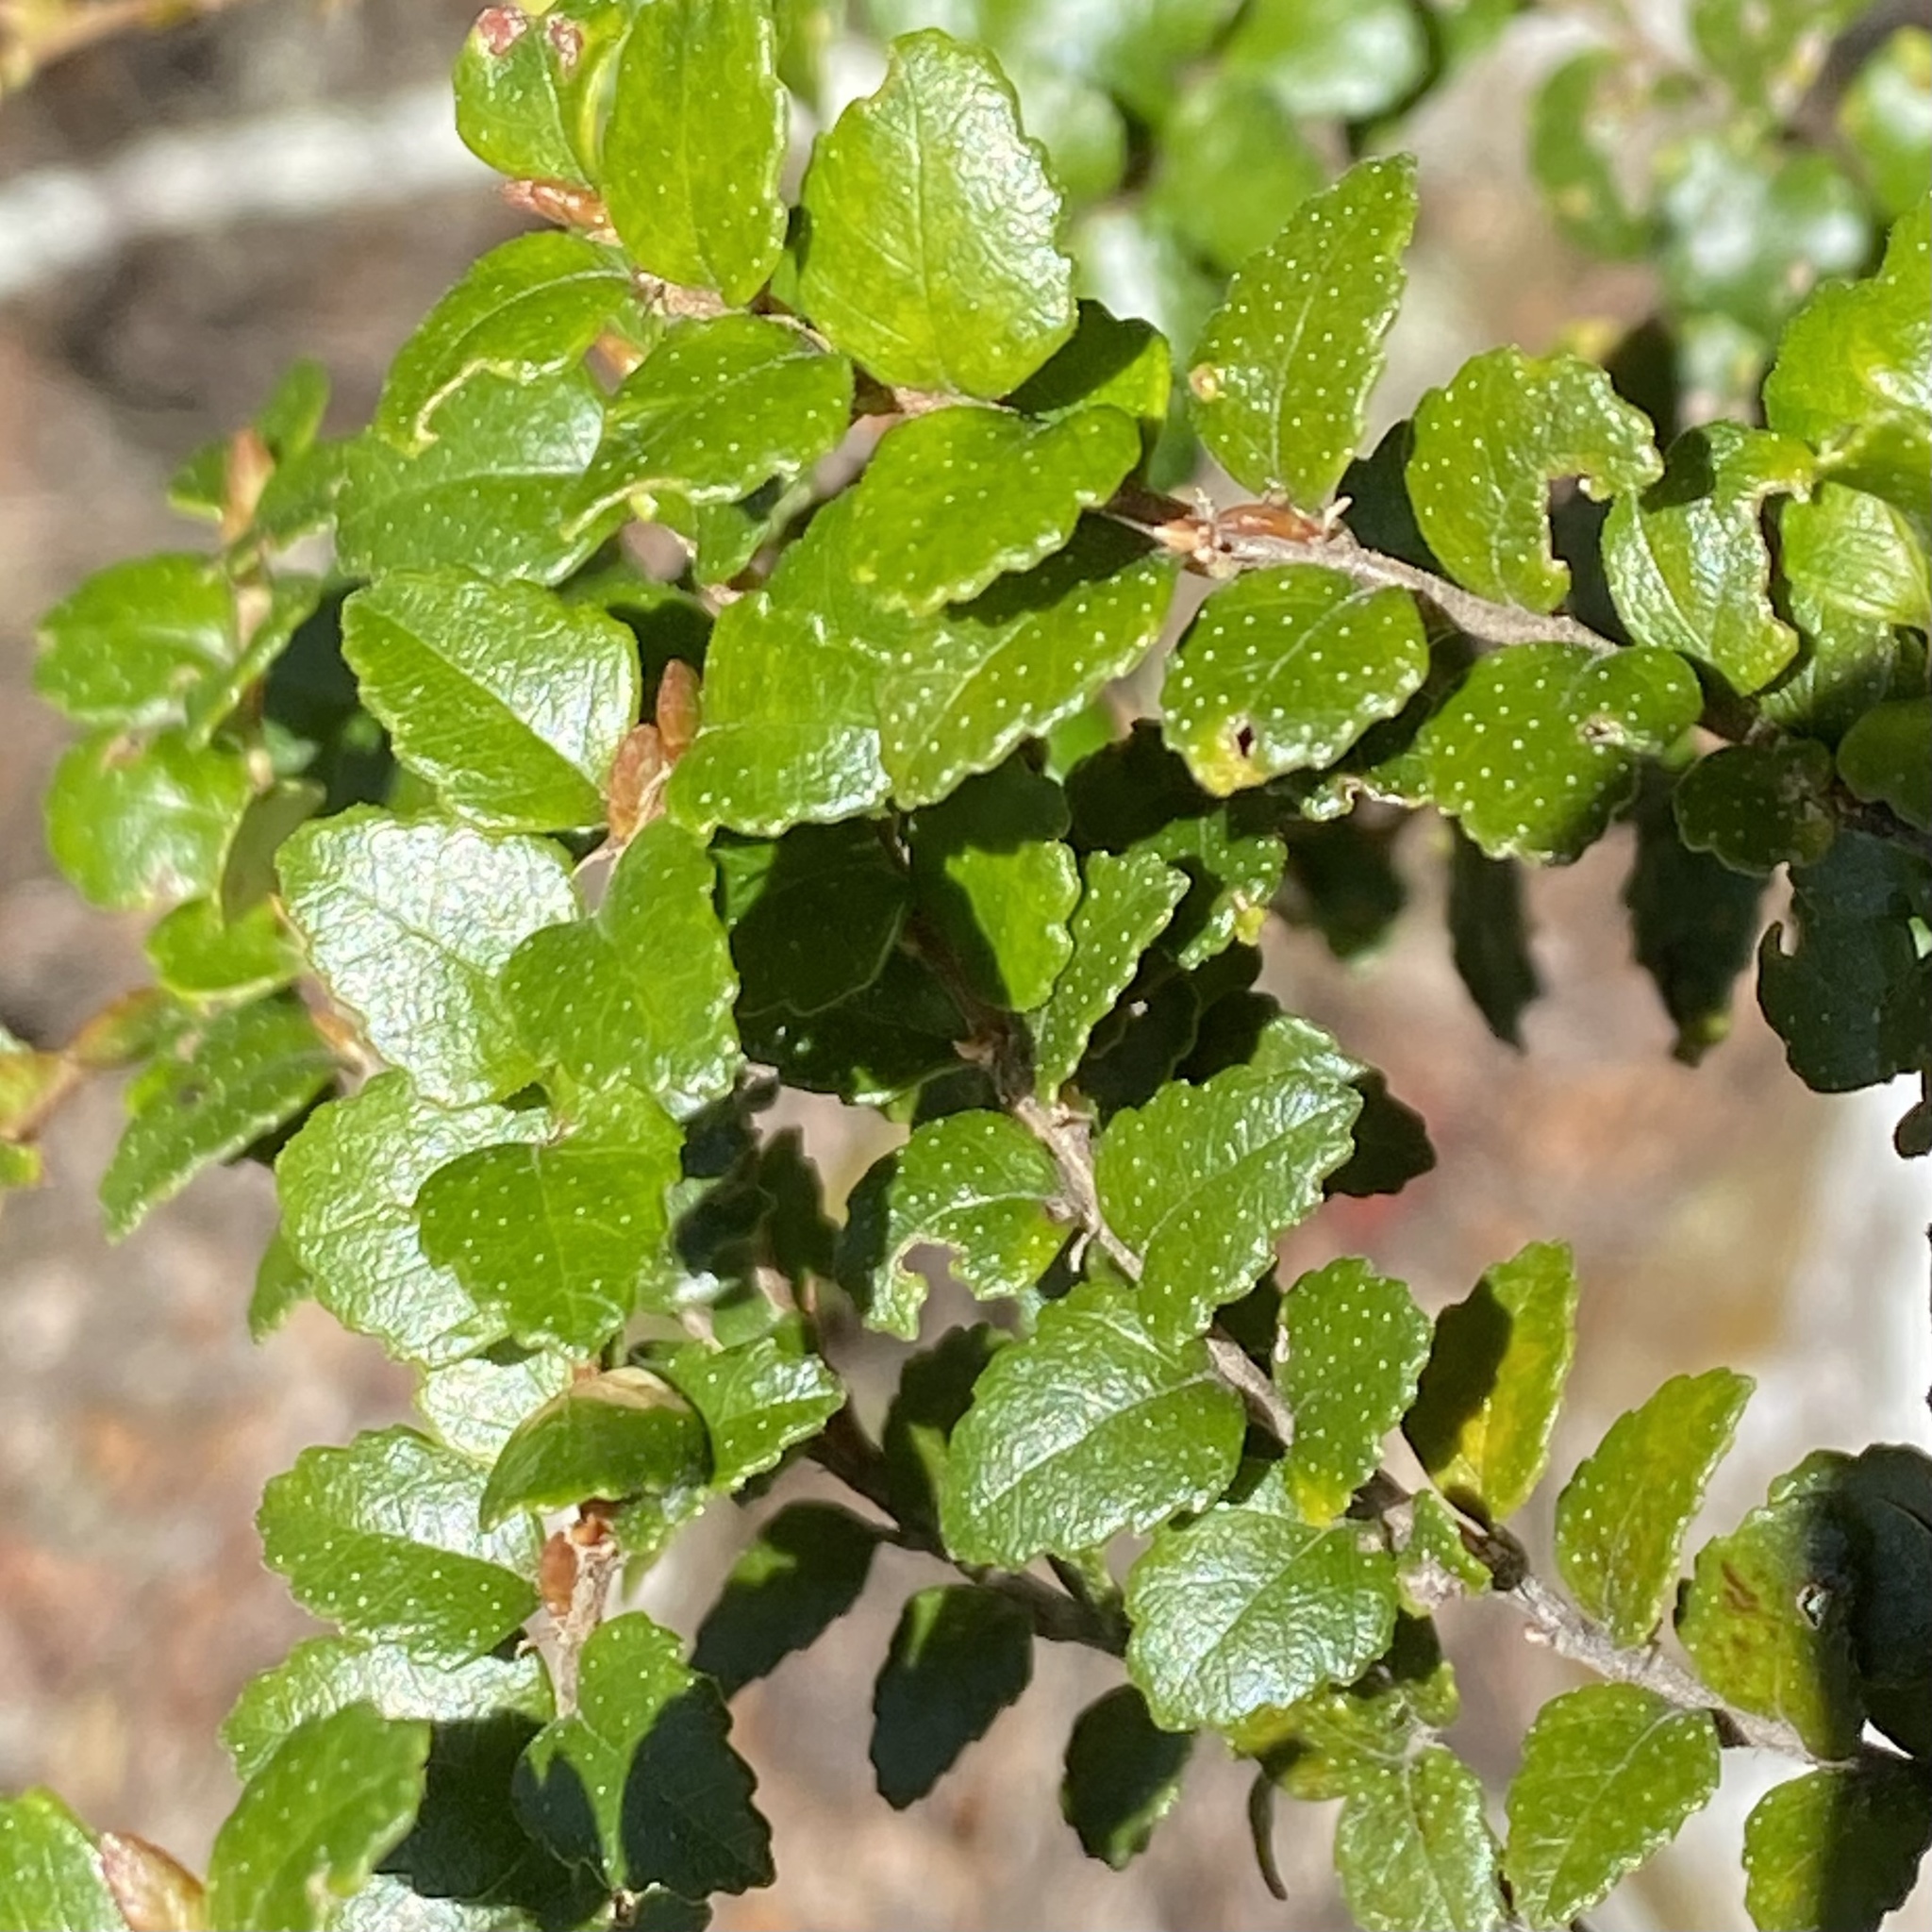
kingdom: Plantae
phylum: Tracheophyta
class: Magnoliopsida
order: Fagales
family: Nothofagaceae
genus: Nothofagus
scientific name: Nothofagus cunninghamii
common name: Myrtle beech
